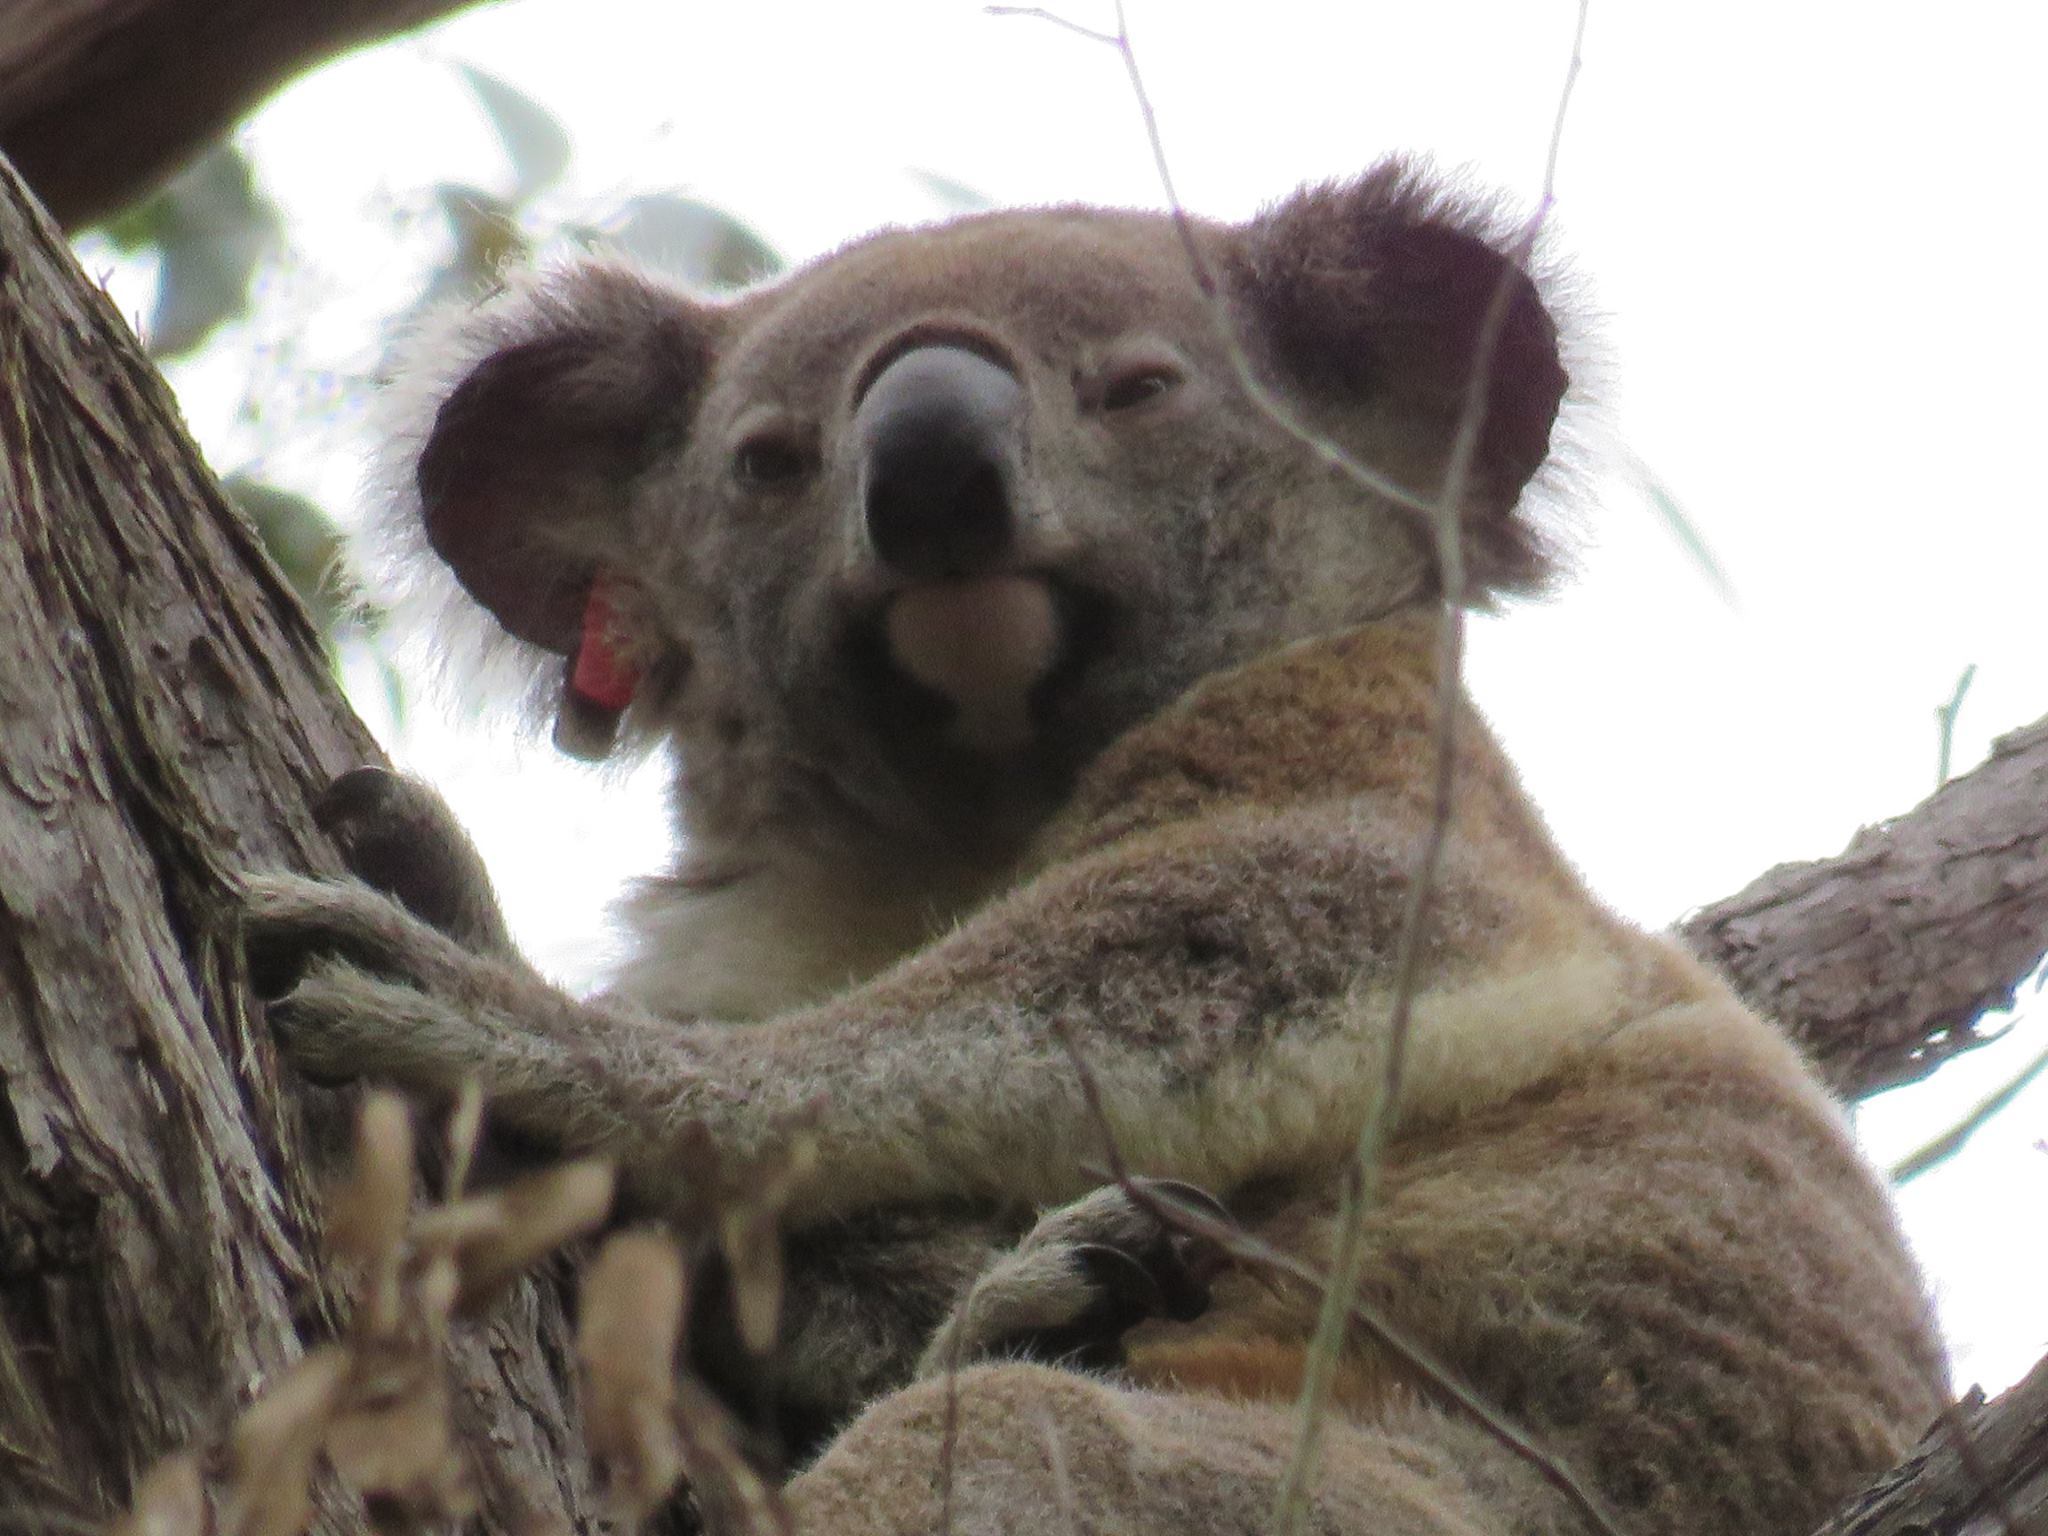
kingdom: Animalia
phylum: Chordata
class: Mammalia
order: Diprotodontia
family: Phascolarctidae
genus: Phascolarctos
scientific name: Phascolarctos cinereus
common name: Koala
